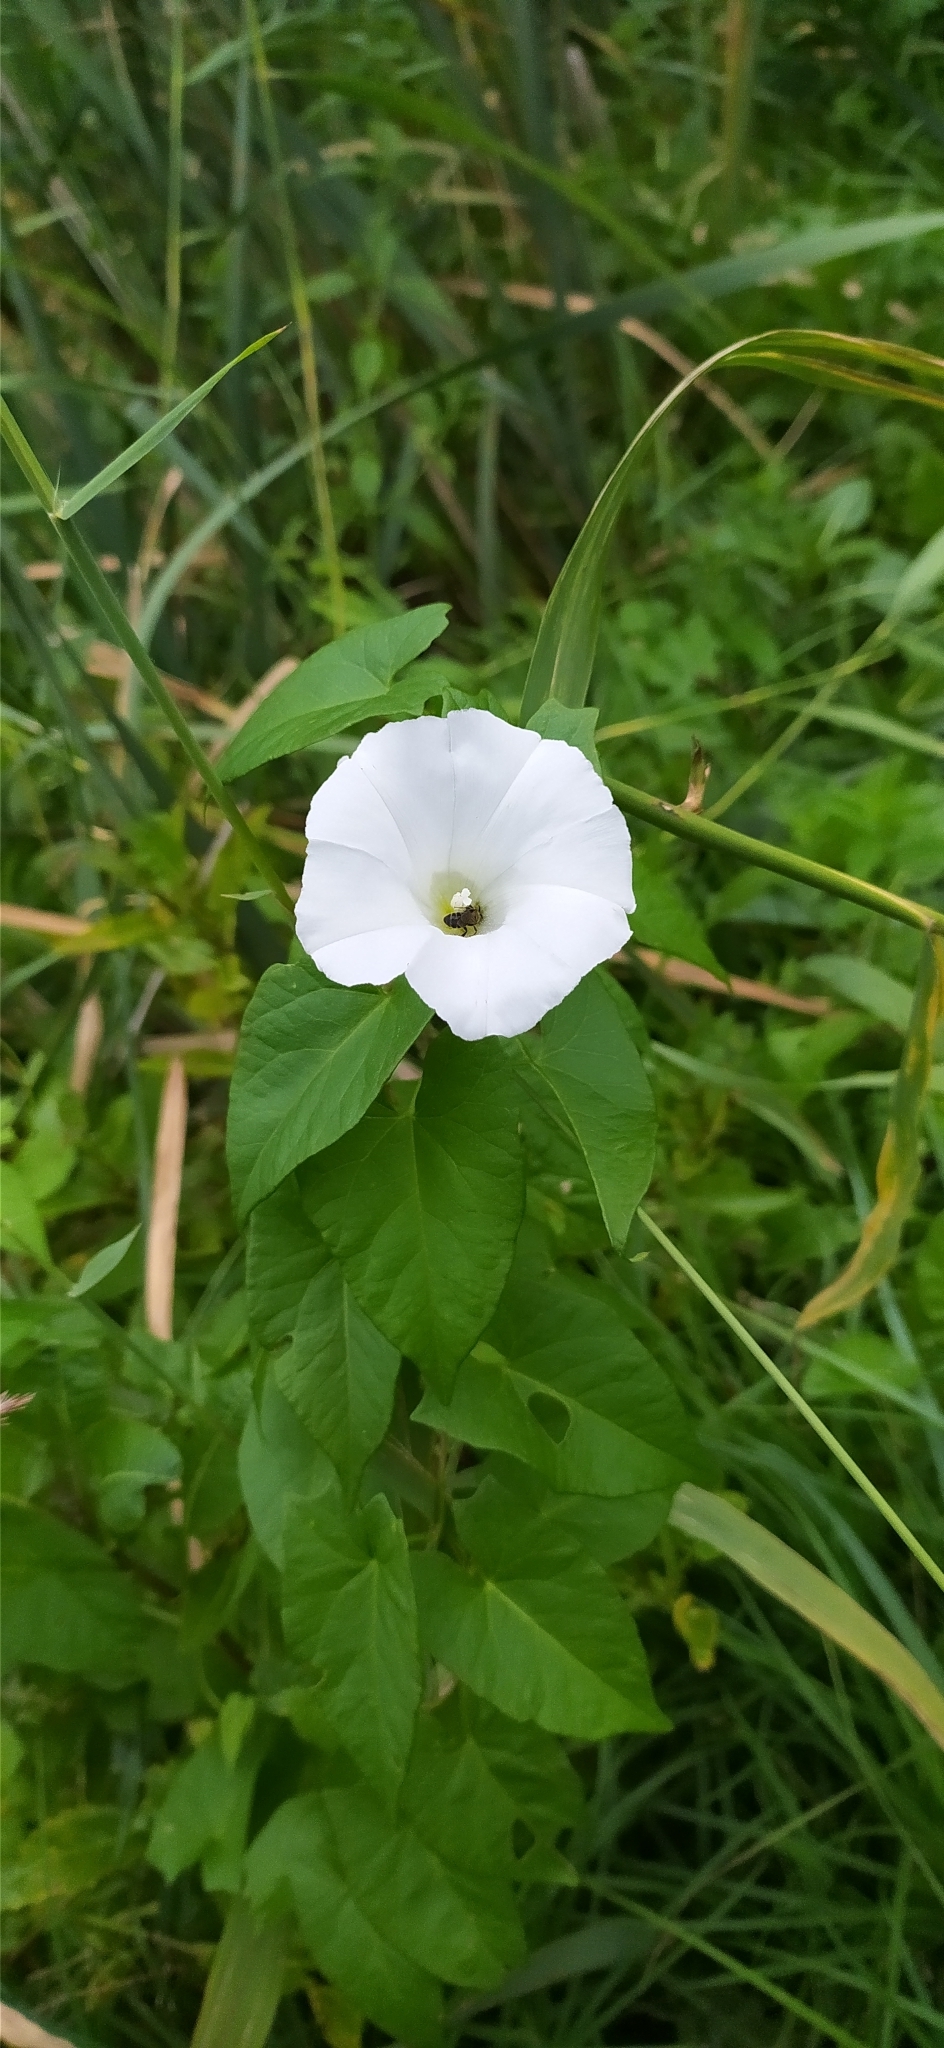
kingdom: Plantae
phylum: Tracheophyta
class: Magnoliopsida
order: Solanales
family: Convolvulaceae
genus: Calystegia
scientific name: Calystegia sepium
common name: Hedge bindweed
